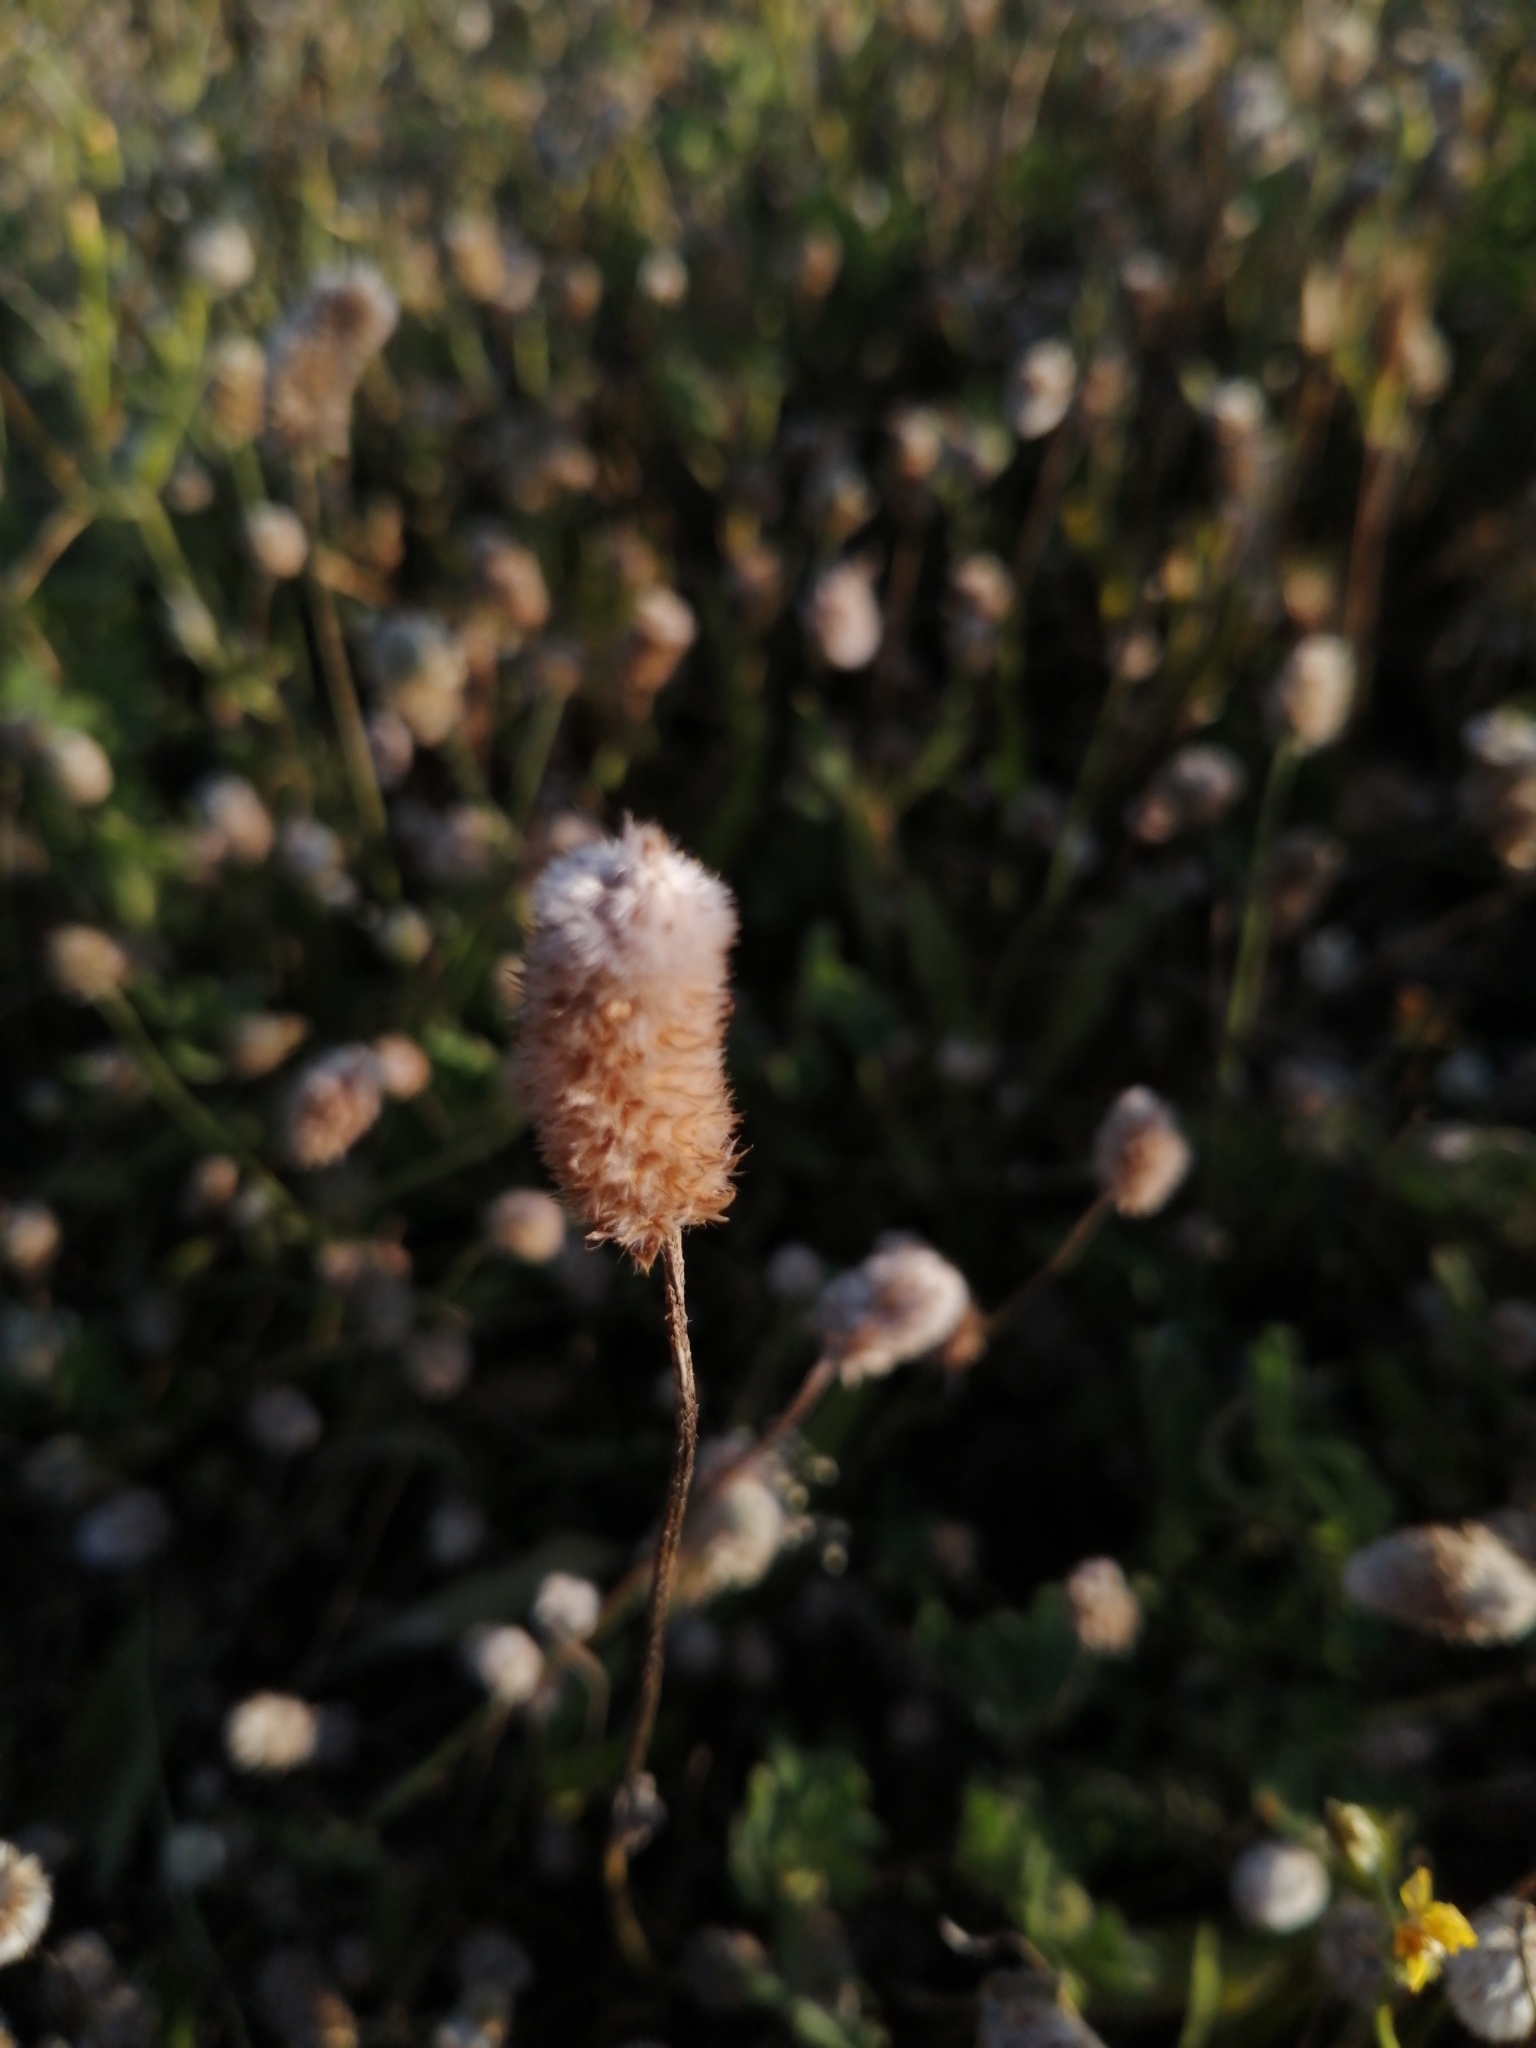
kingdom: Plantae
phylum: Tracheophyta
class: Magnoliopsida
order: Lamiales
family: Plantaginaceae
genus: Plantago
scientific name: Plantago lagopus
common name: Hare-foot plantain
